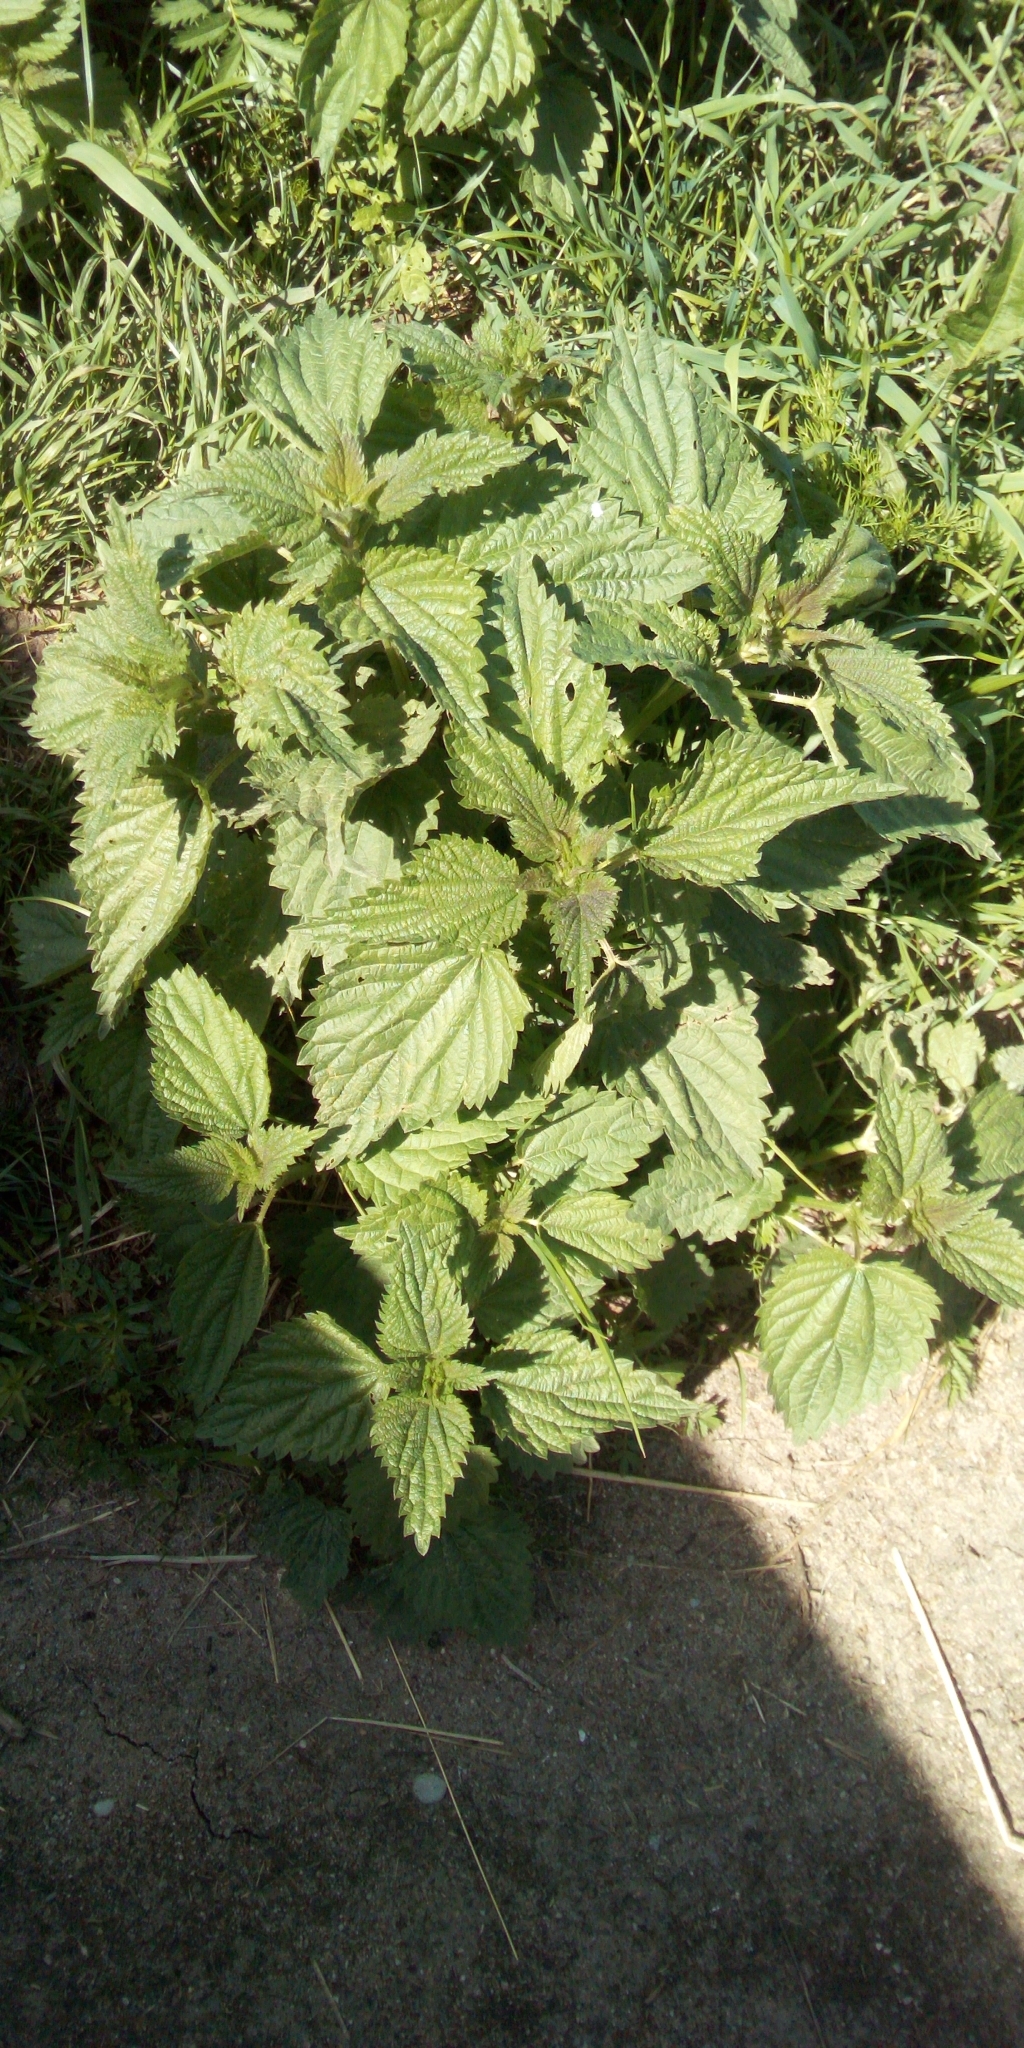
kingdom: Plantae
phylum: Tracheophyta
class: Magnoliopsida
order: Rosales
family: Urticaceae
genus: Urtica
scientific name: Urtica dioica
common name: Common nettle
